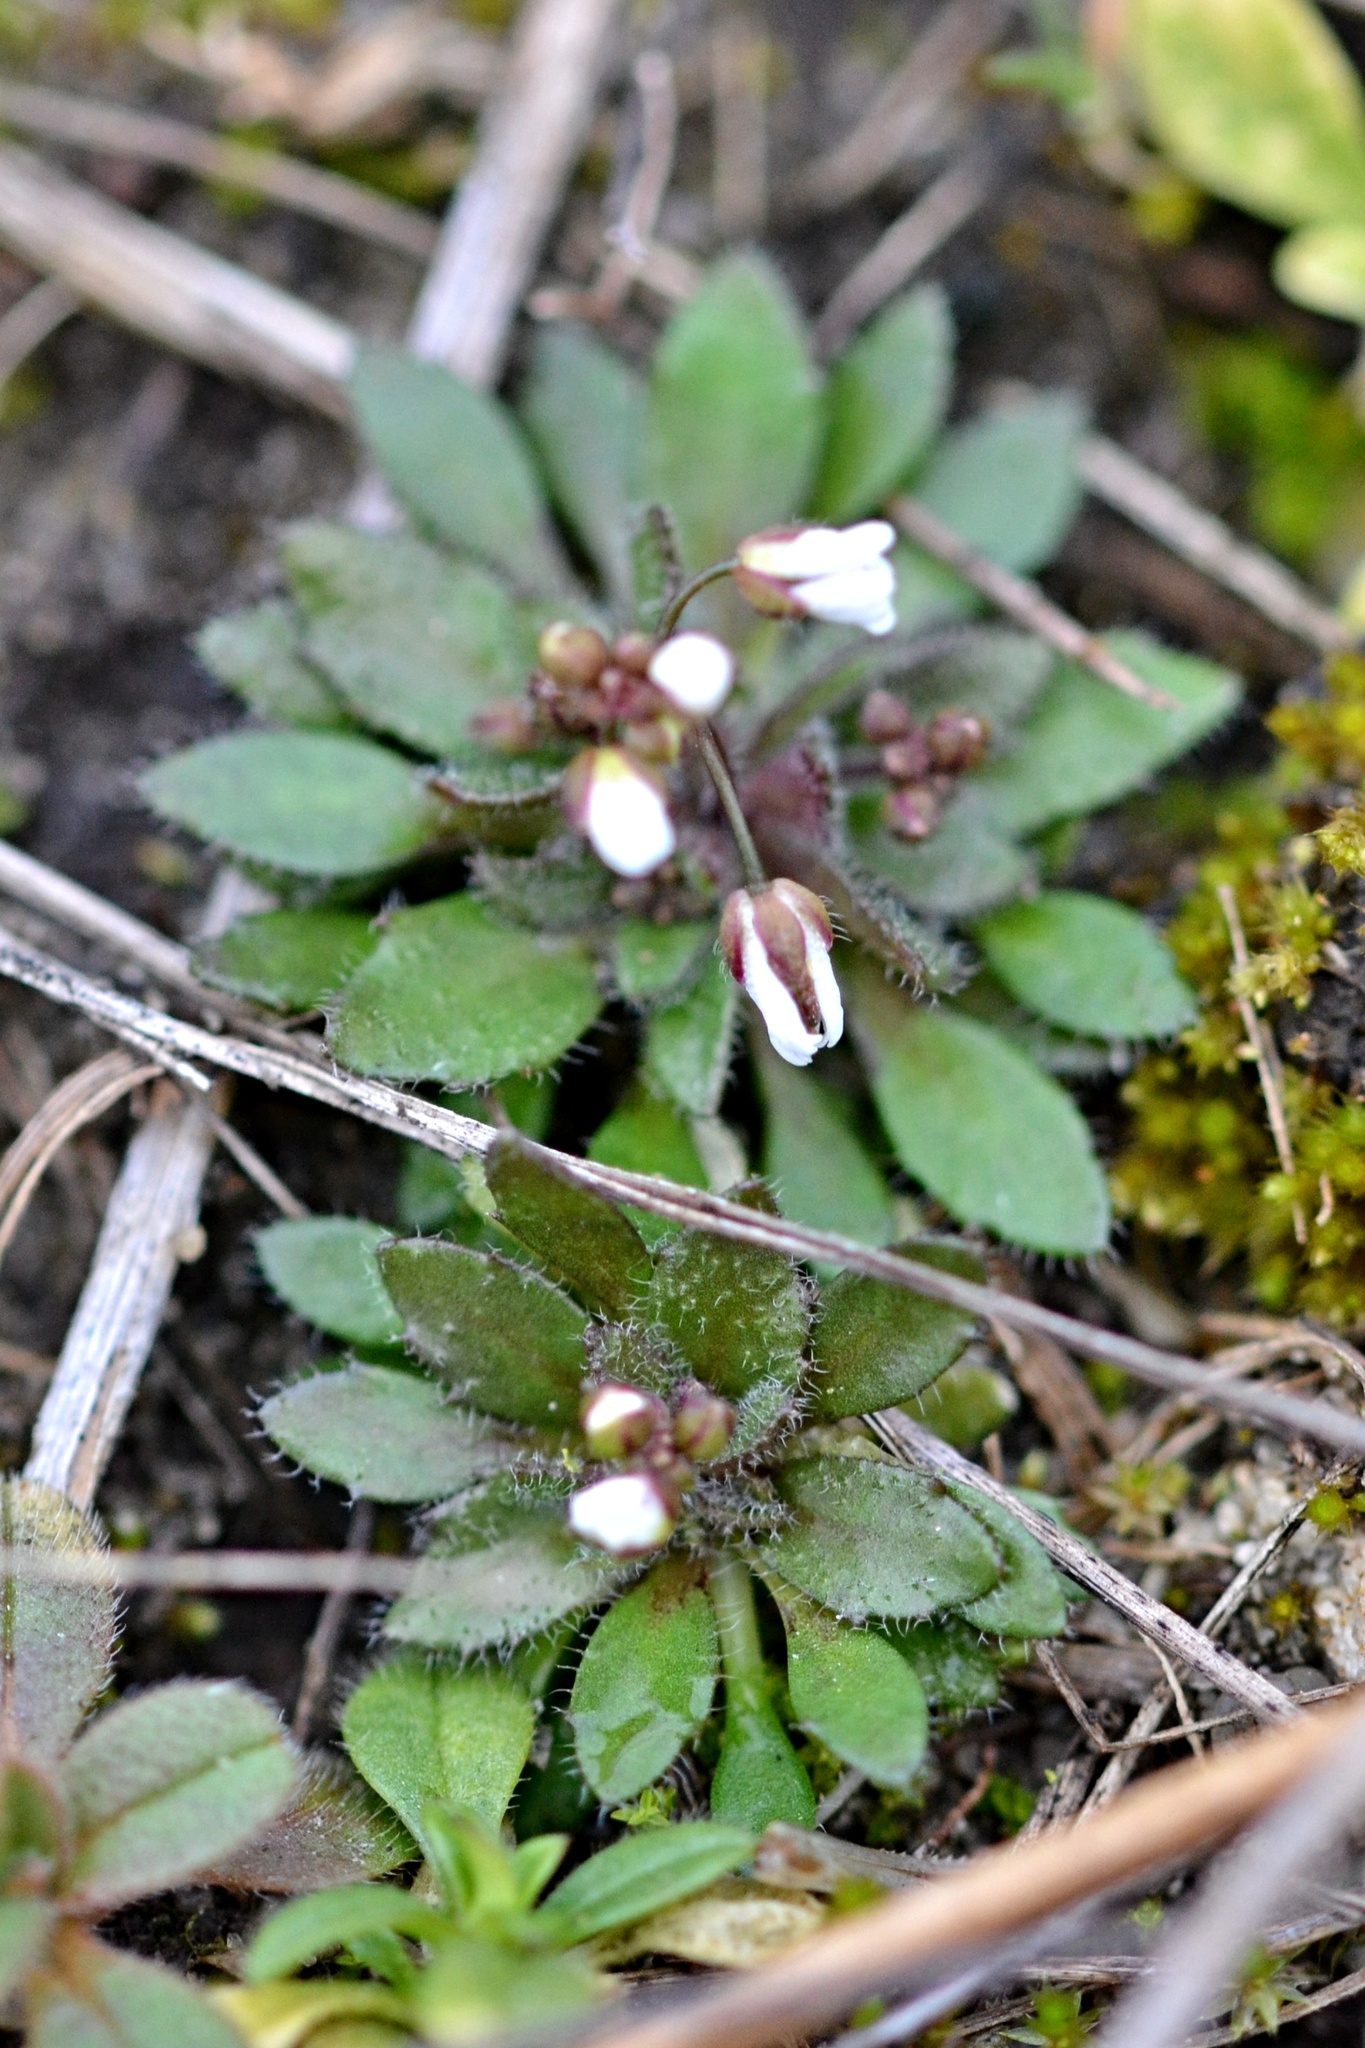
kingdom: Plantae
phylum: Tracheophyta
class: Magnoliopsida
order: Brassicales
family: Brassicaceae
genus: Draba
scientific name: Draba verna
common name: Spring draba
